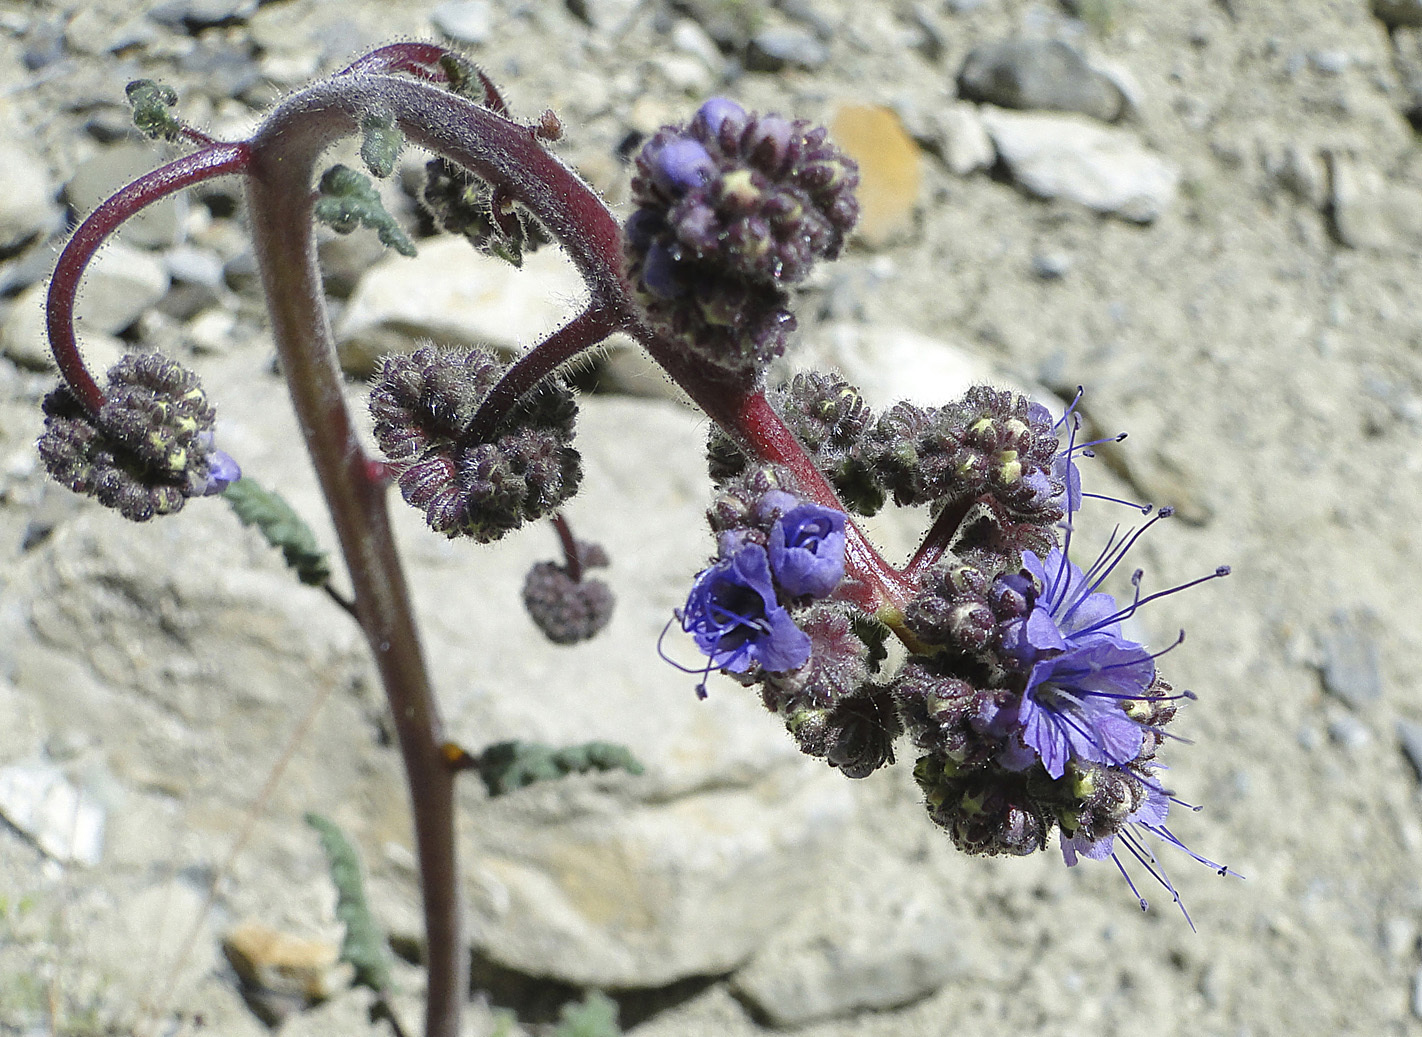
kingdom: Plantae
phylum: Tracheophyta
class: Magnoliopsida
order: Boraginales
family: Hydrophyllaceae
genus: Phacelia
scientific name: Phacelia crenulata
